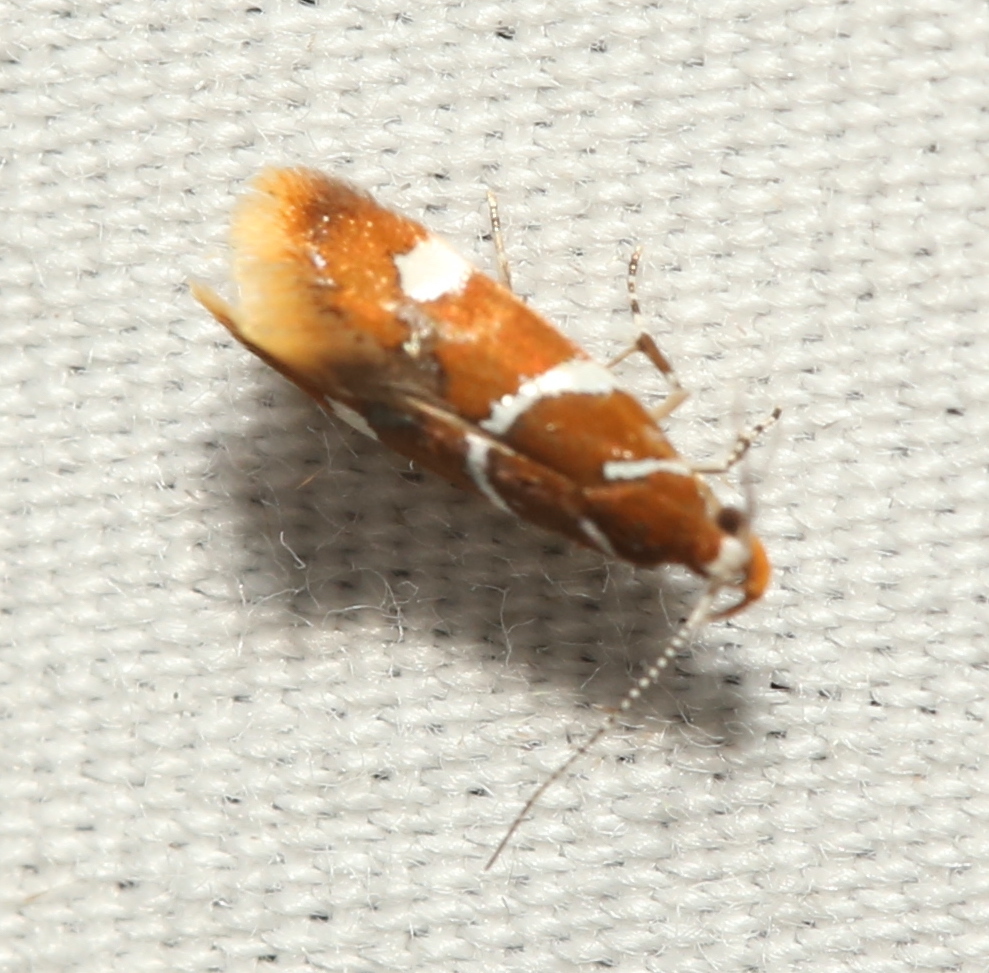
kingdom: Animalia
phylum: Arthropoda
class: Insecta
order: Lepidoptera
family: Oecophoridae
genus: Promalactis
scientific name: Promalactis suzukiella
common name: Moth
